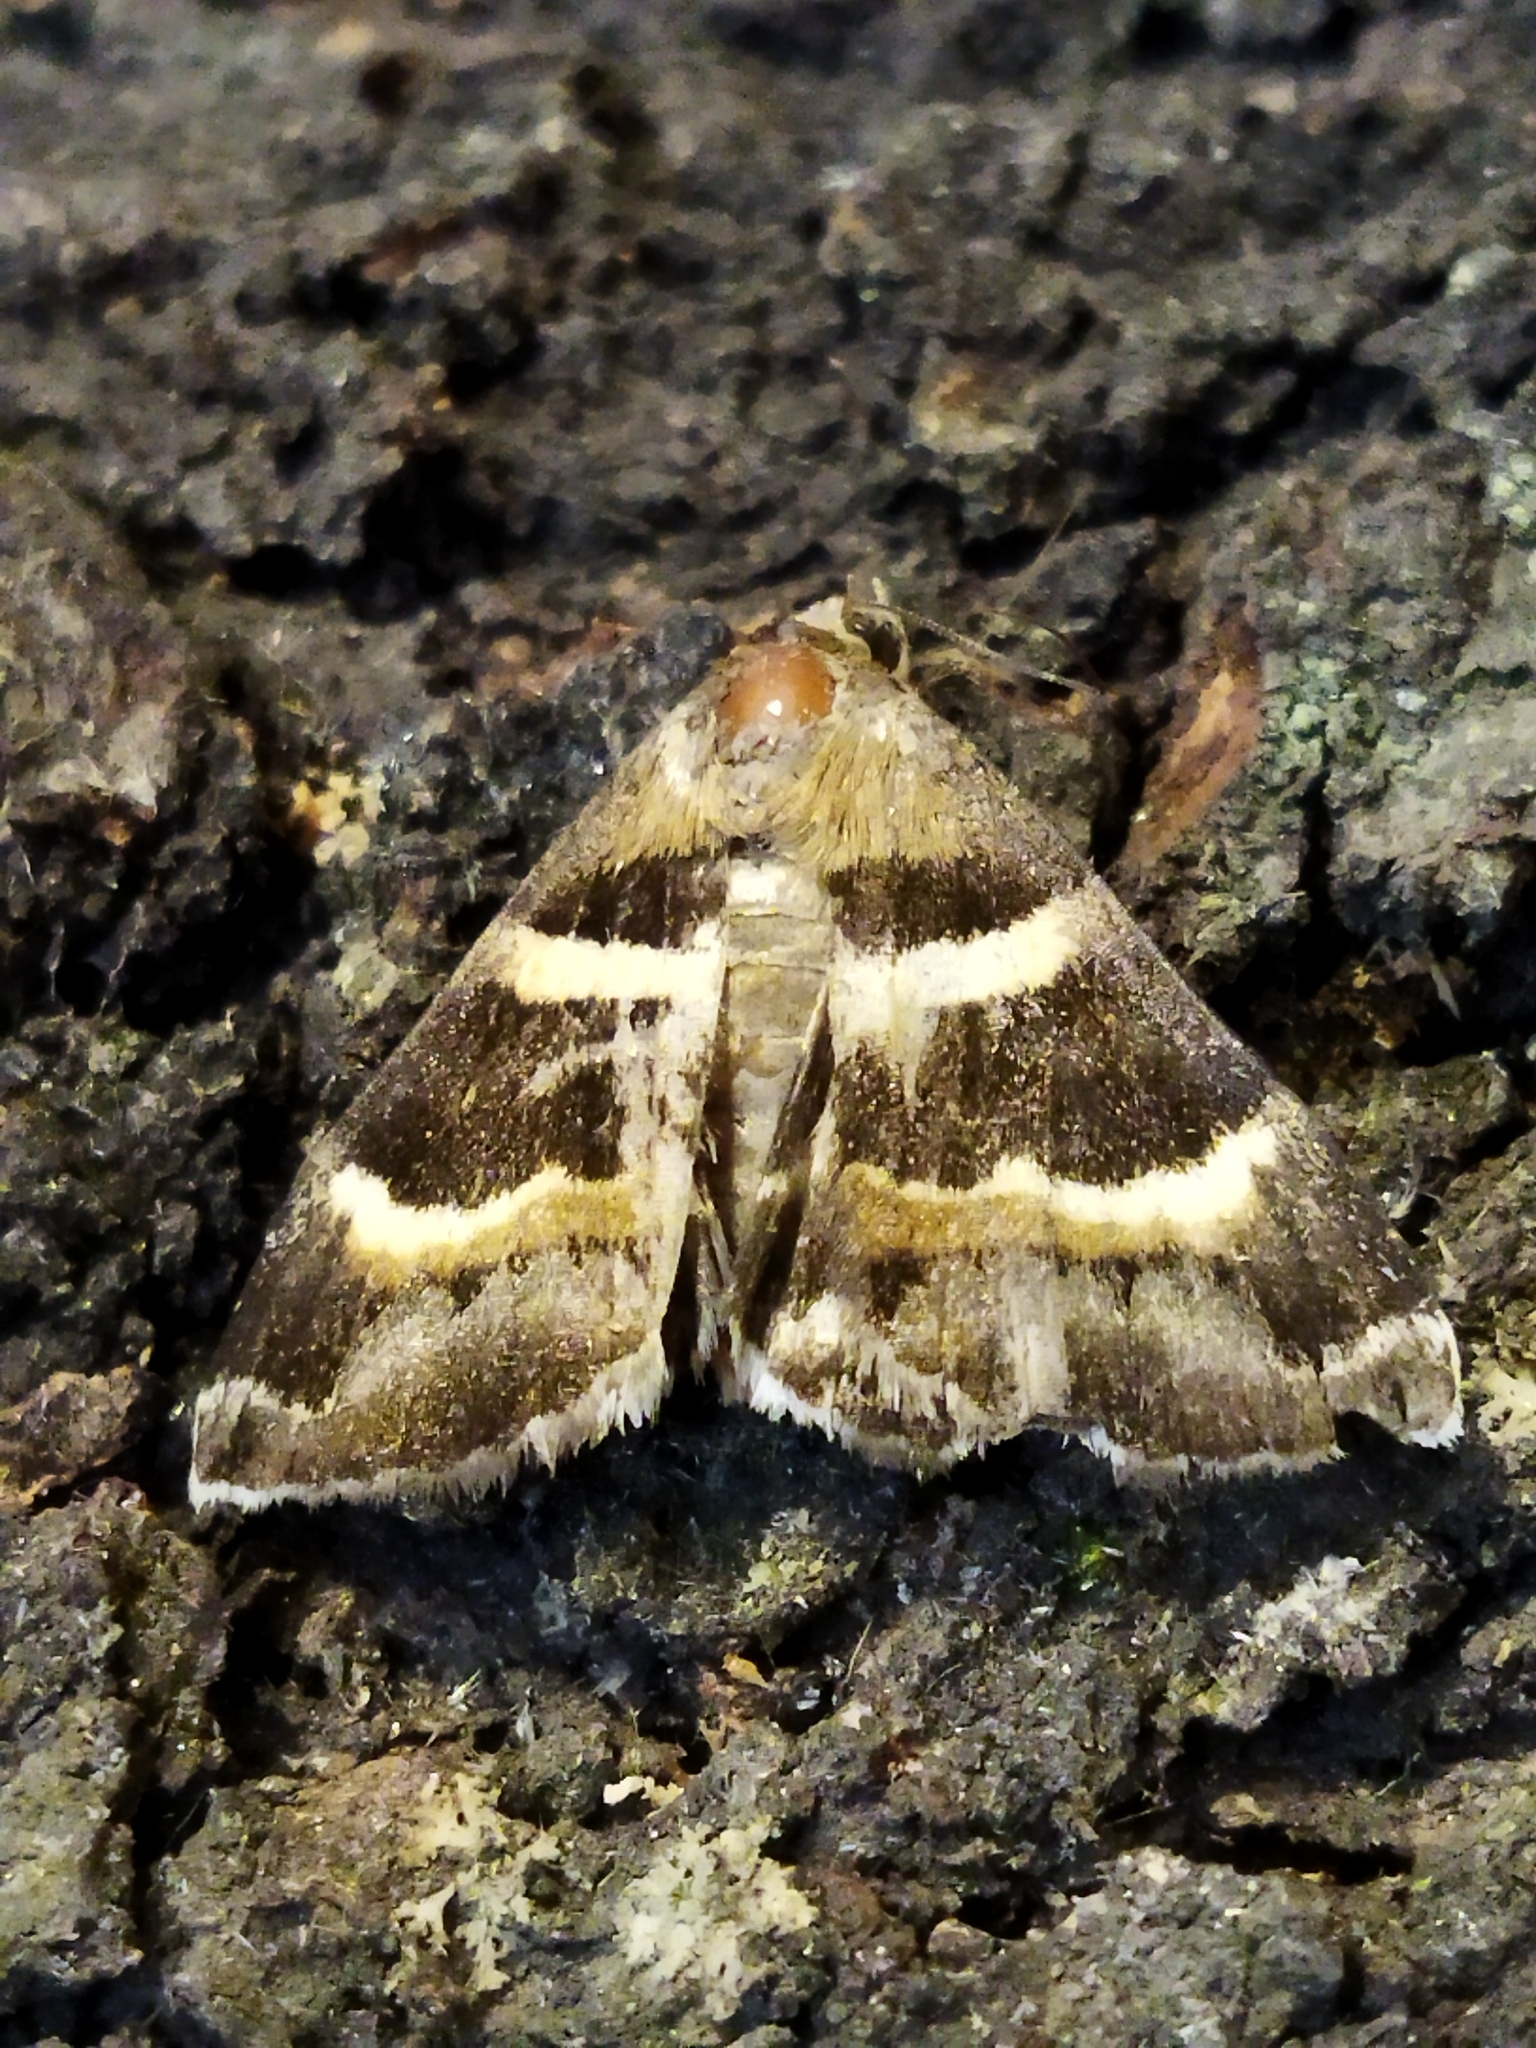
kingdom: Animalia
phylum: Arthropoda
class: Insecta
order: Lepidoptera
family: Erebidae
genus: Grammodes
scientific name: Grammodes stolida
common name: Geometrician
